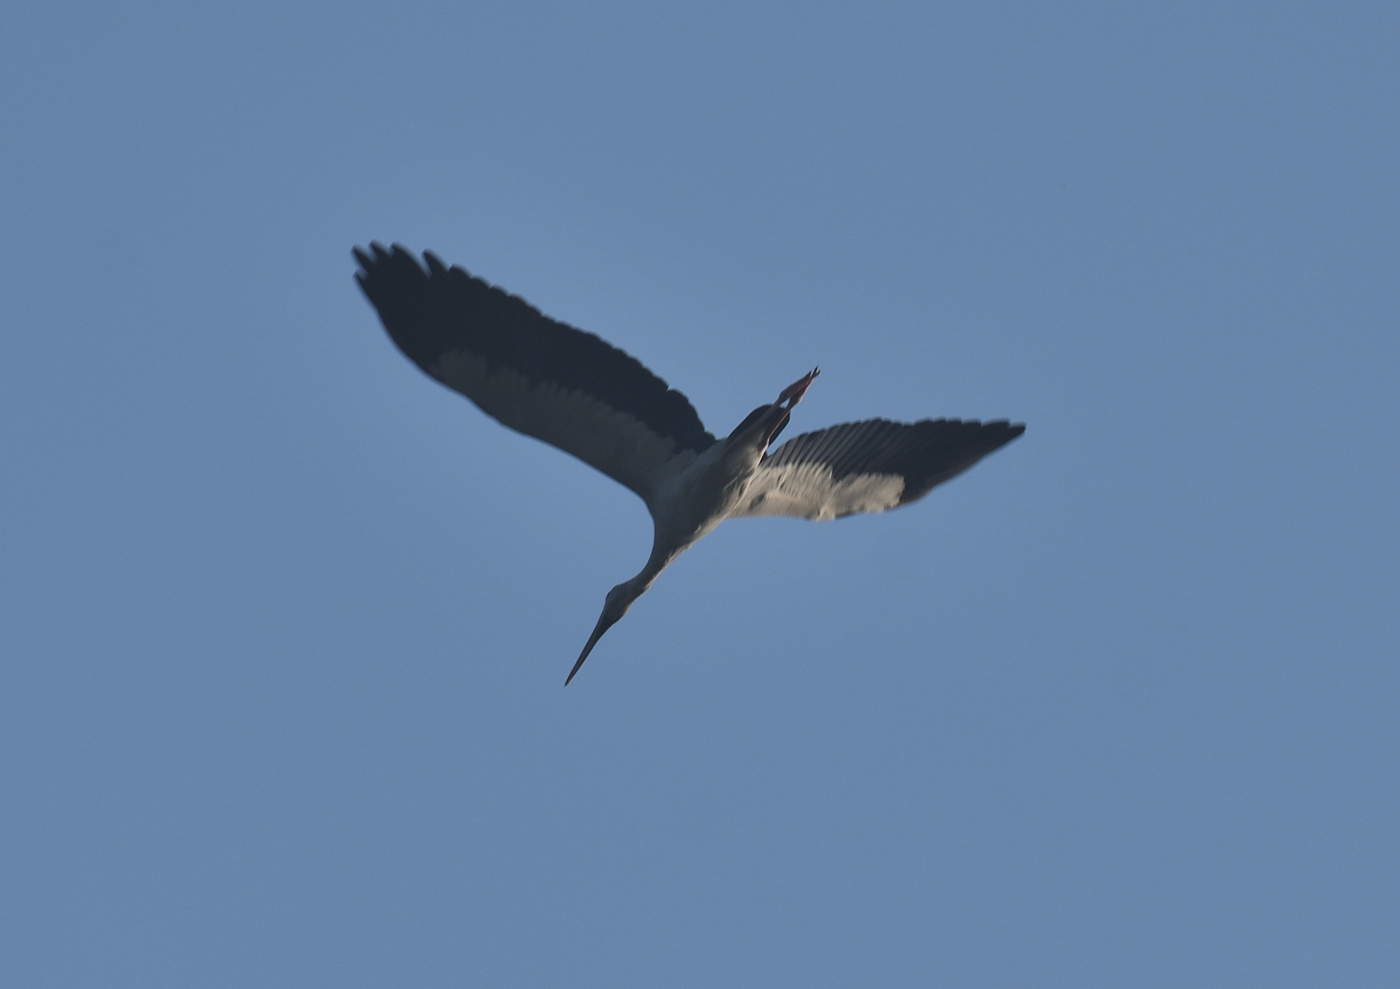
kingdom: Animalia
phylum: Chordata
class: Aves
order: Ciconiiformes
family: Ciconiidae
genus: Anastomus
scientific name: Anastomus oscitans
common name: Asian openbill
